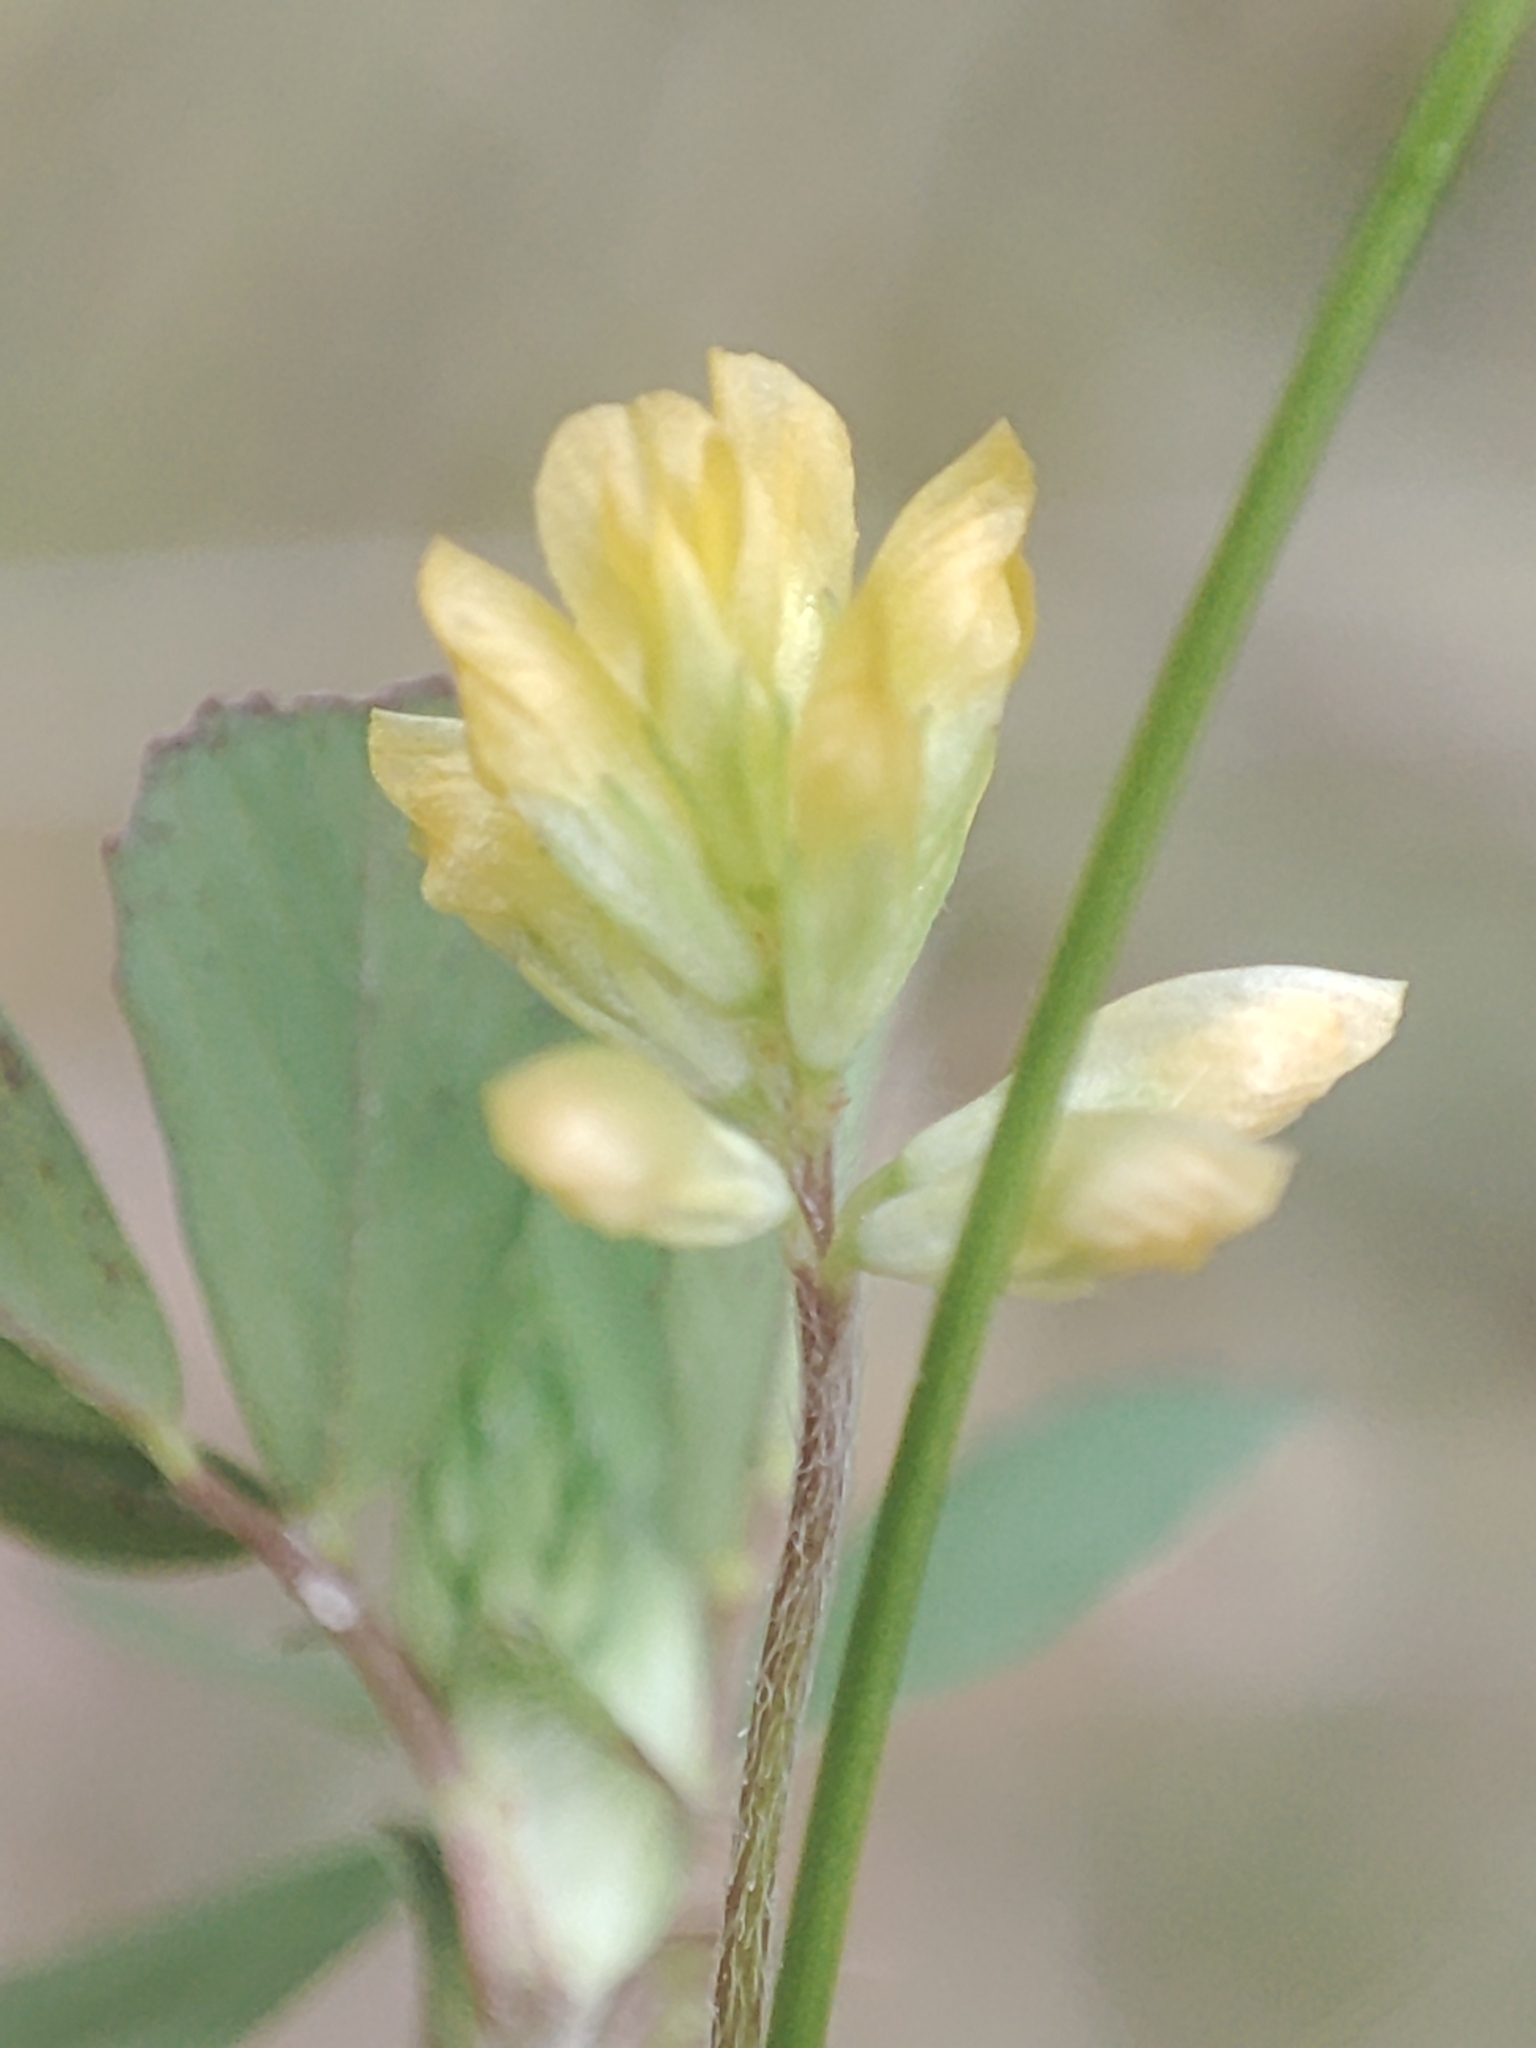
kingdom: Plantae
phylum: Tracheophyta
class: Magnoliopsida
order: Fabales
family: Fabaceae
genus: Trifolium
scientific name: Trifolium dubium
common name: Suckling clover
